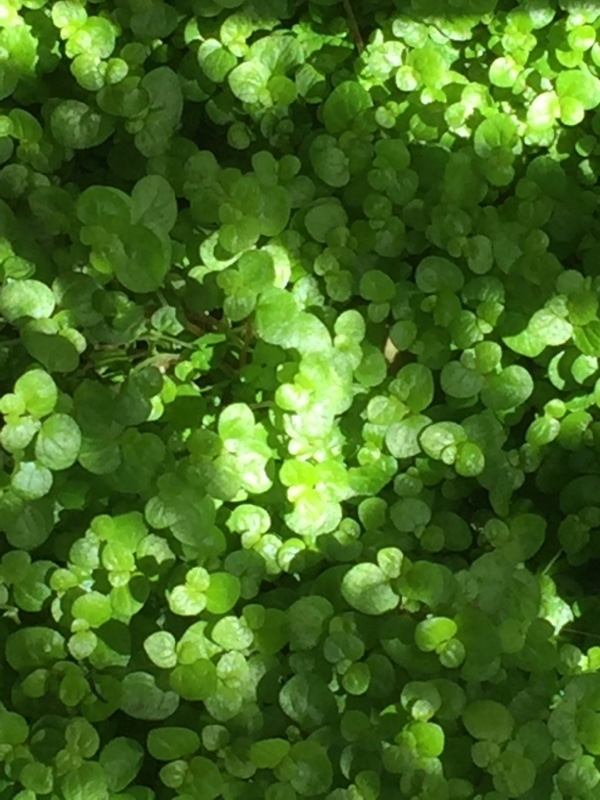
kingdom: Plantae
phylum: Tracheophyta
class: Magnoliopsida
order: Rosales
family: Urticaceae
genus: Soleirolia
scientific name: Soleirolia soleirolii
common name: Mind-your-own-business
